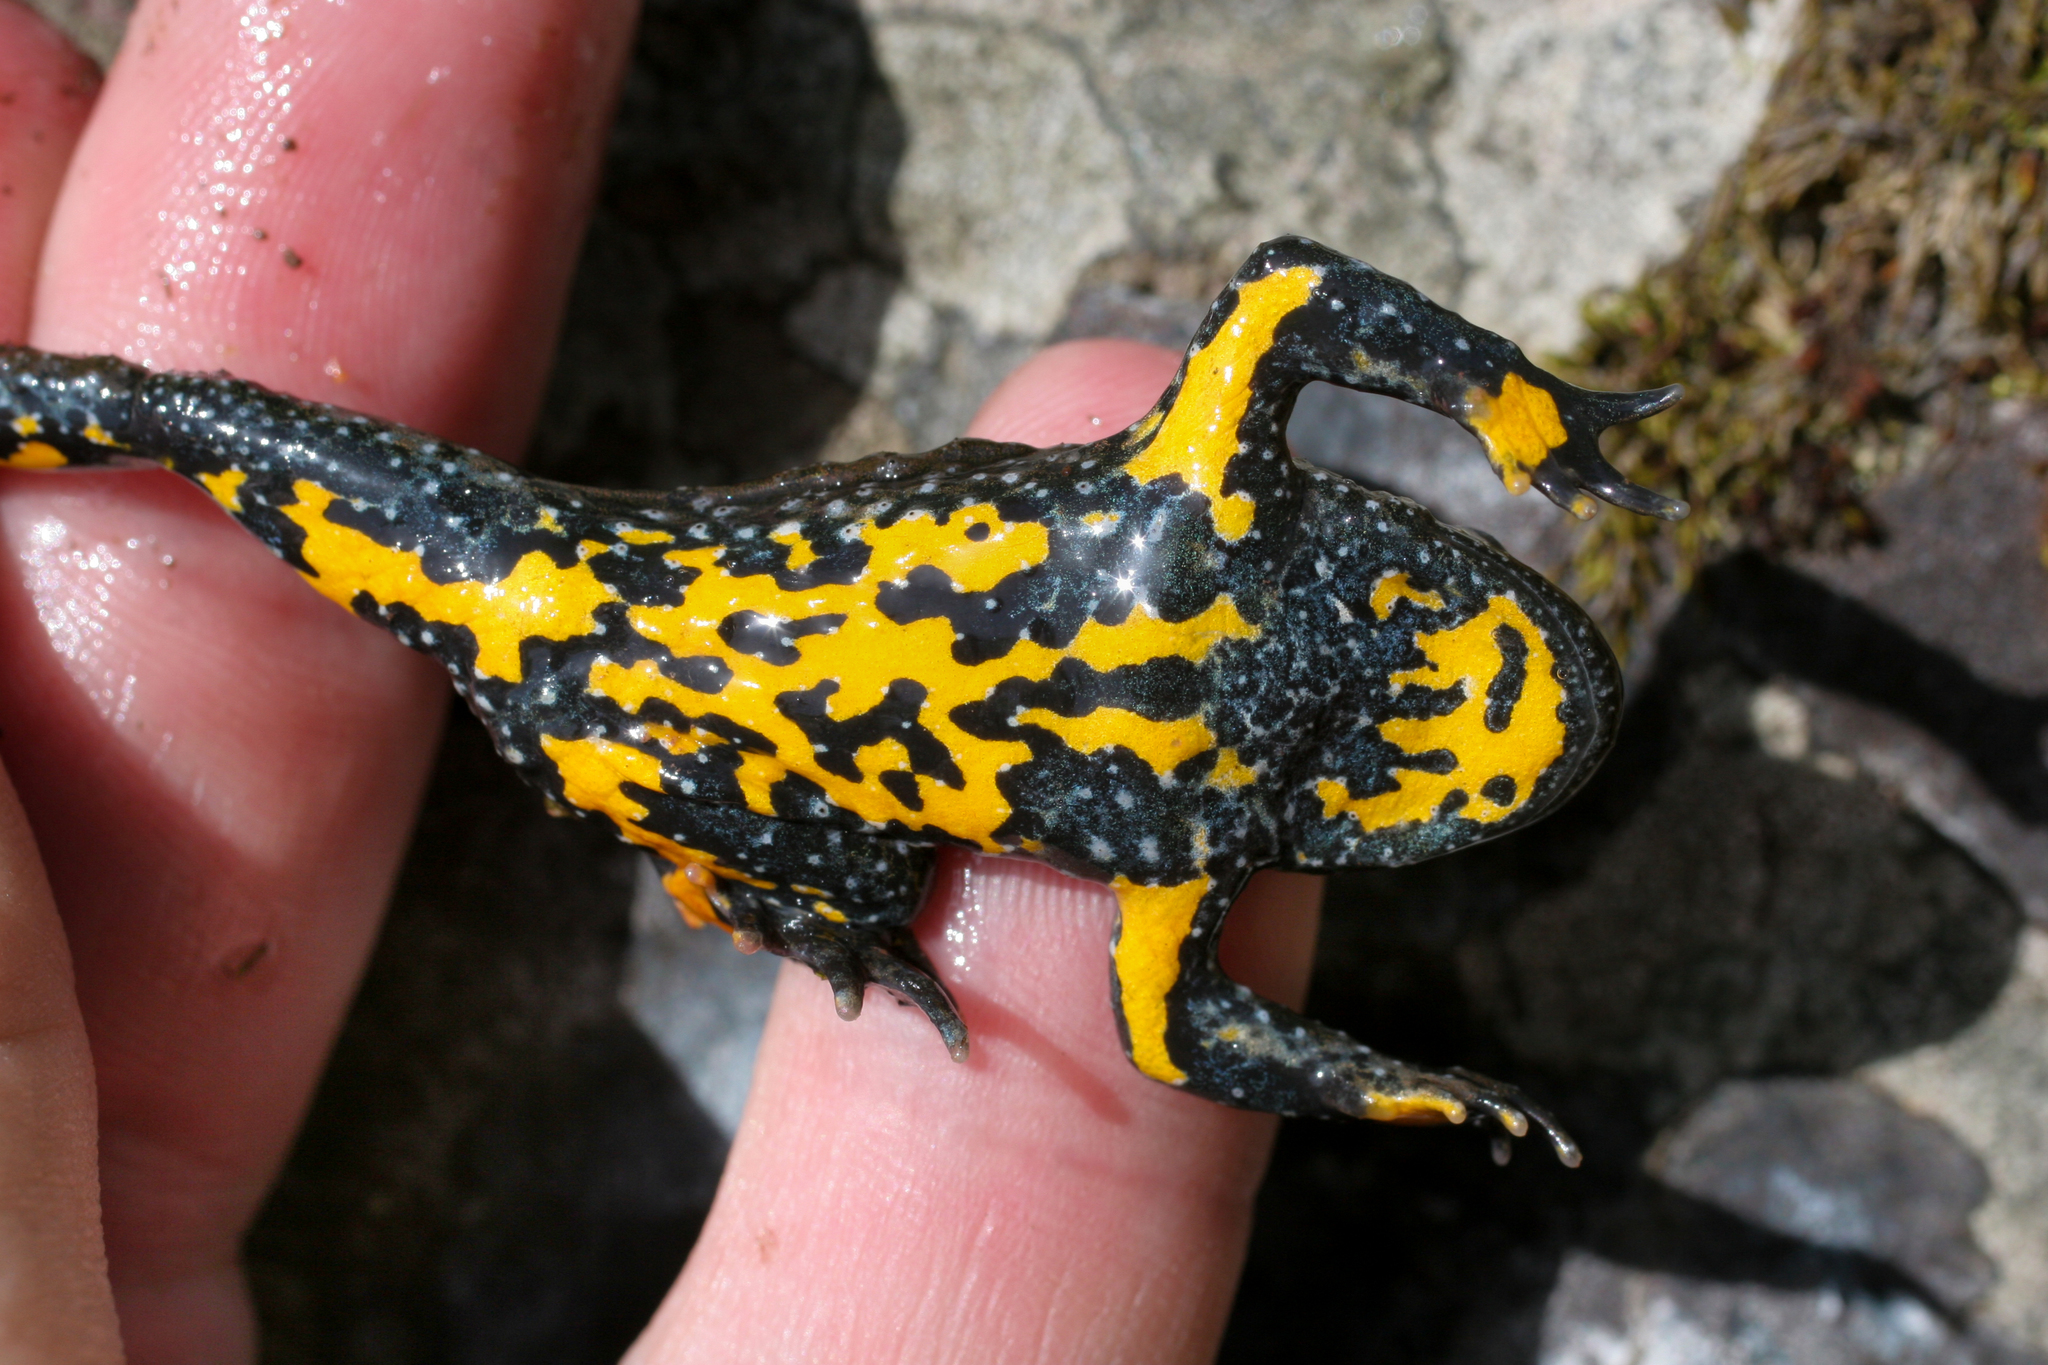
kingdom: Animalia
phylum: Chordata
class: Amphibia
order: Anura
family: Bombinatoridae
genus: Bombina
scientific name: Bombina variegata
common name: Yellow-bellied toad
